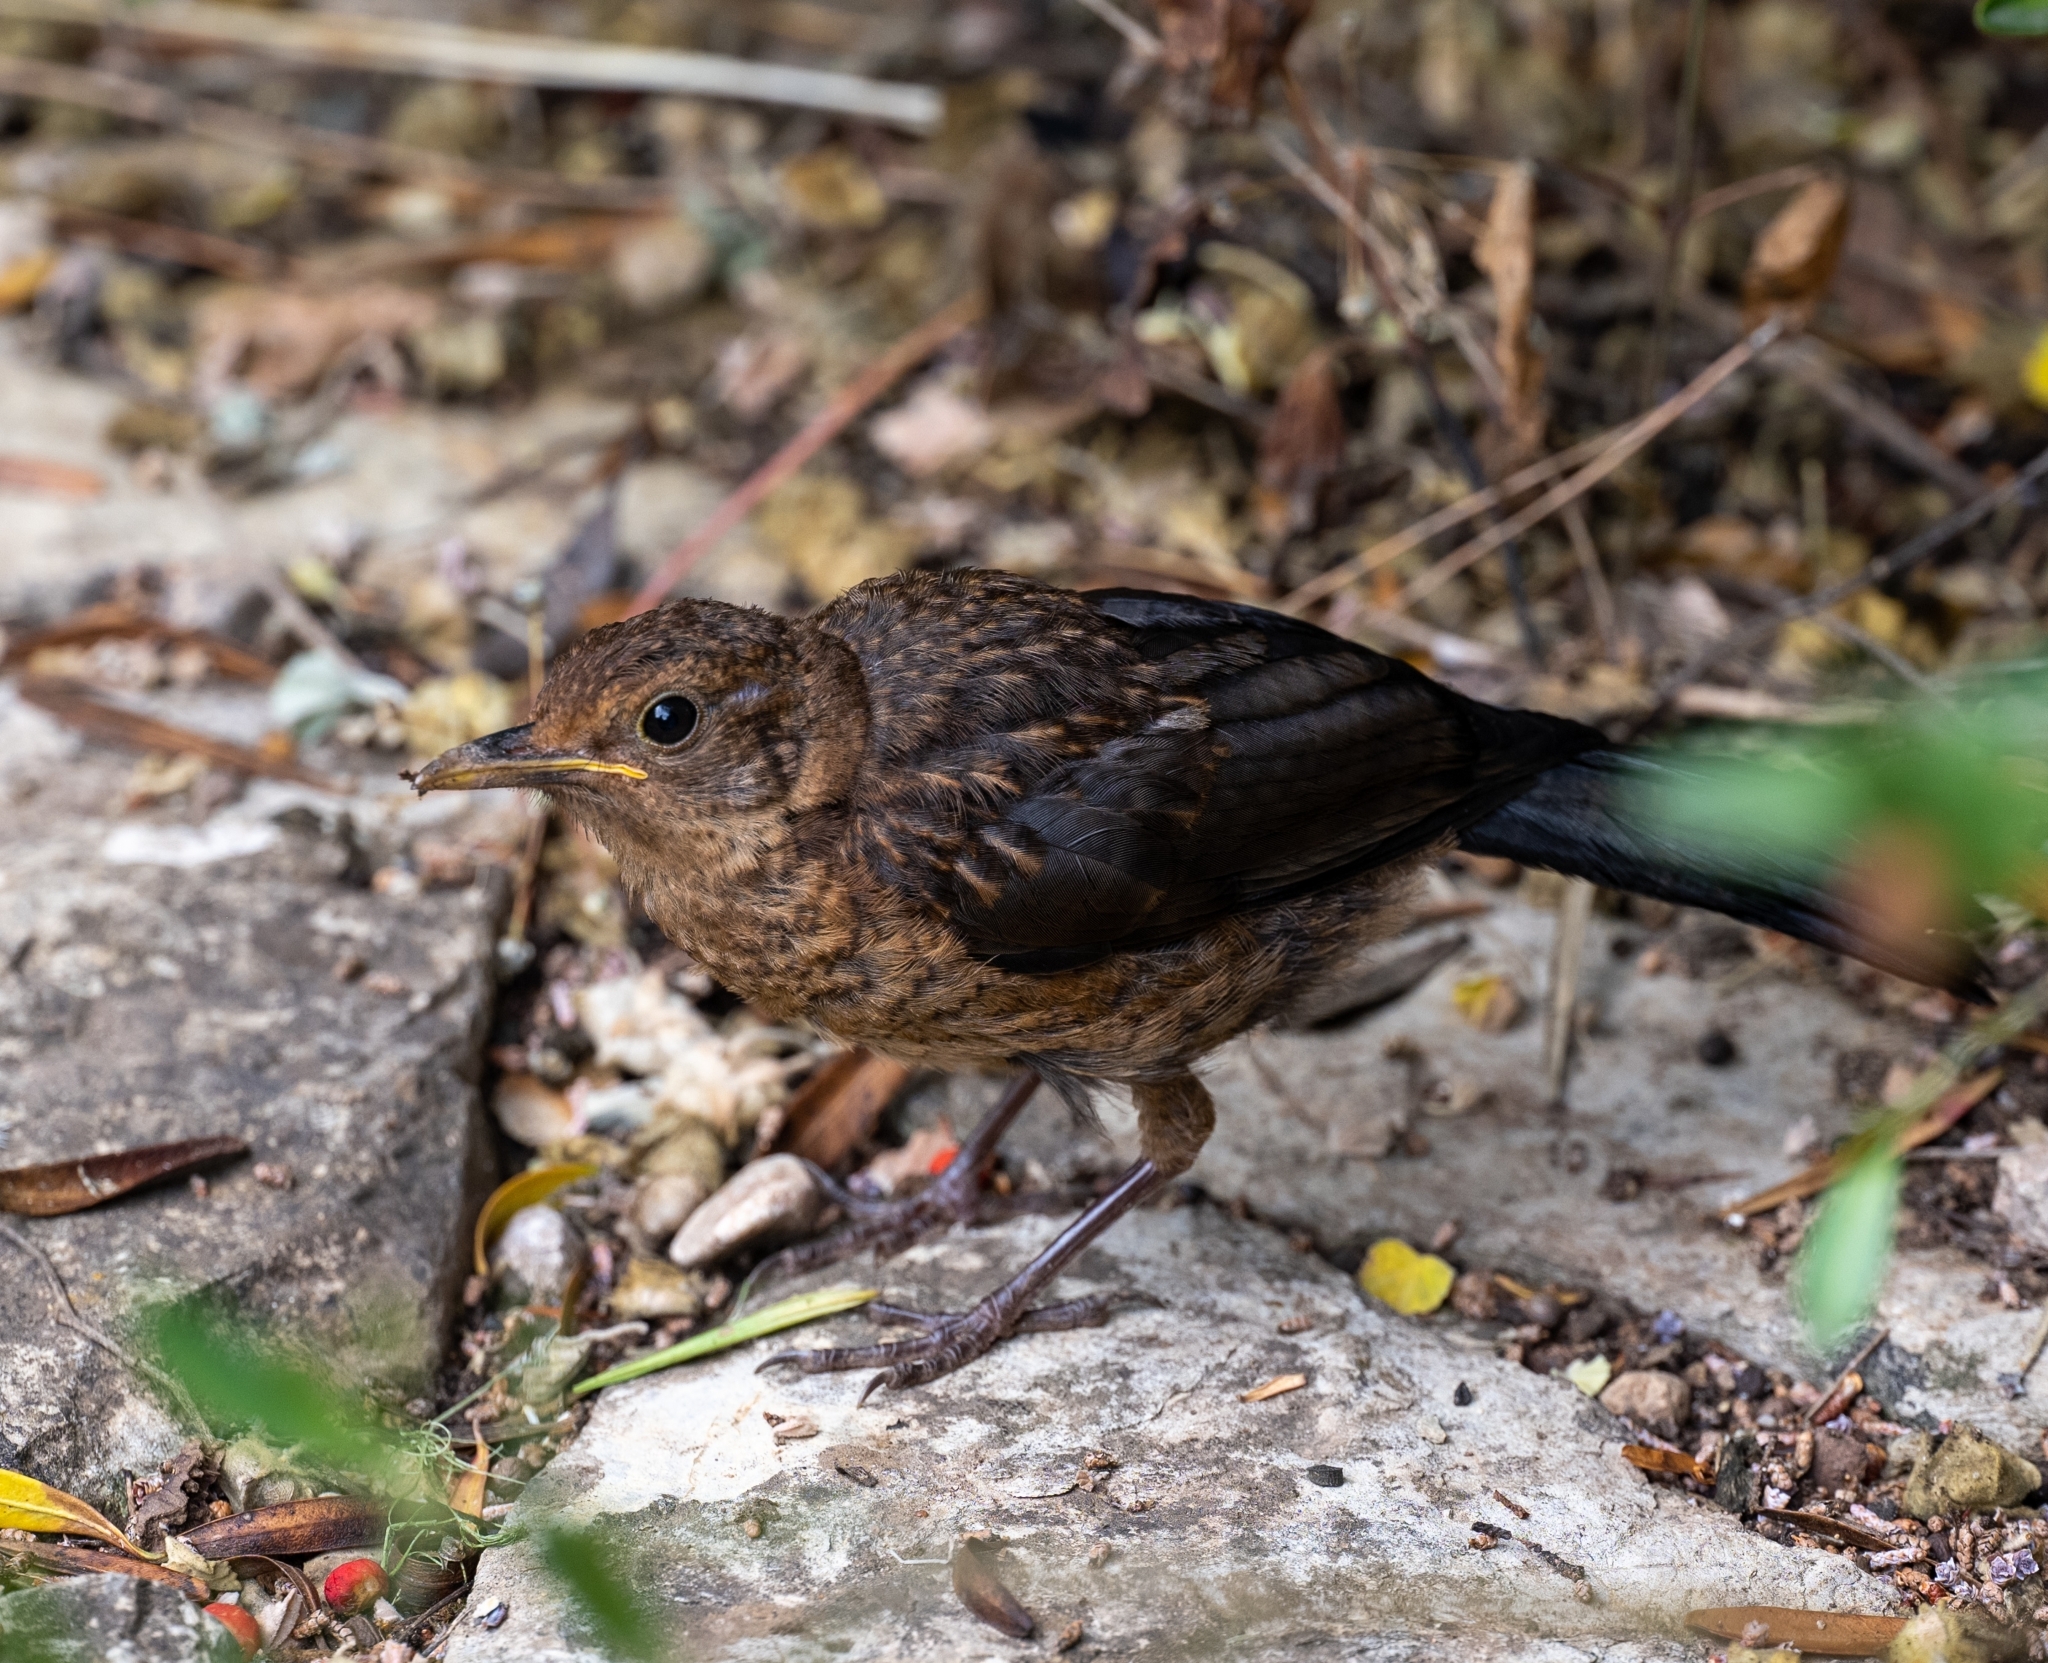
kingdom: Animalia
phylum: Chordata
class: Aves
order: Passeriformes
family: Turdidae
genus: Turdus
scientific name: Turdus merula
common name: Common blackbird
